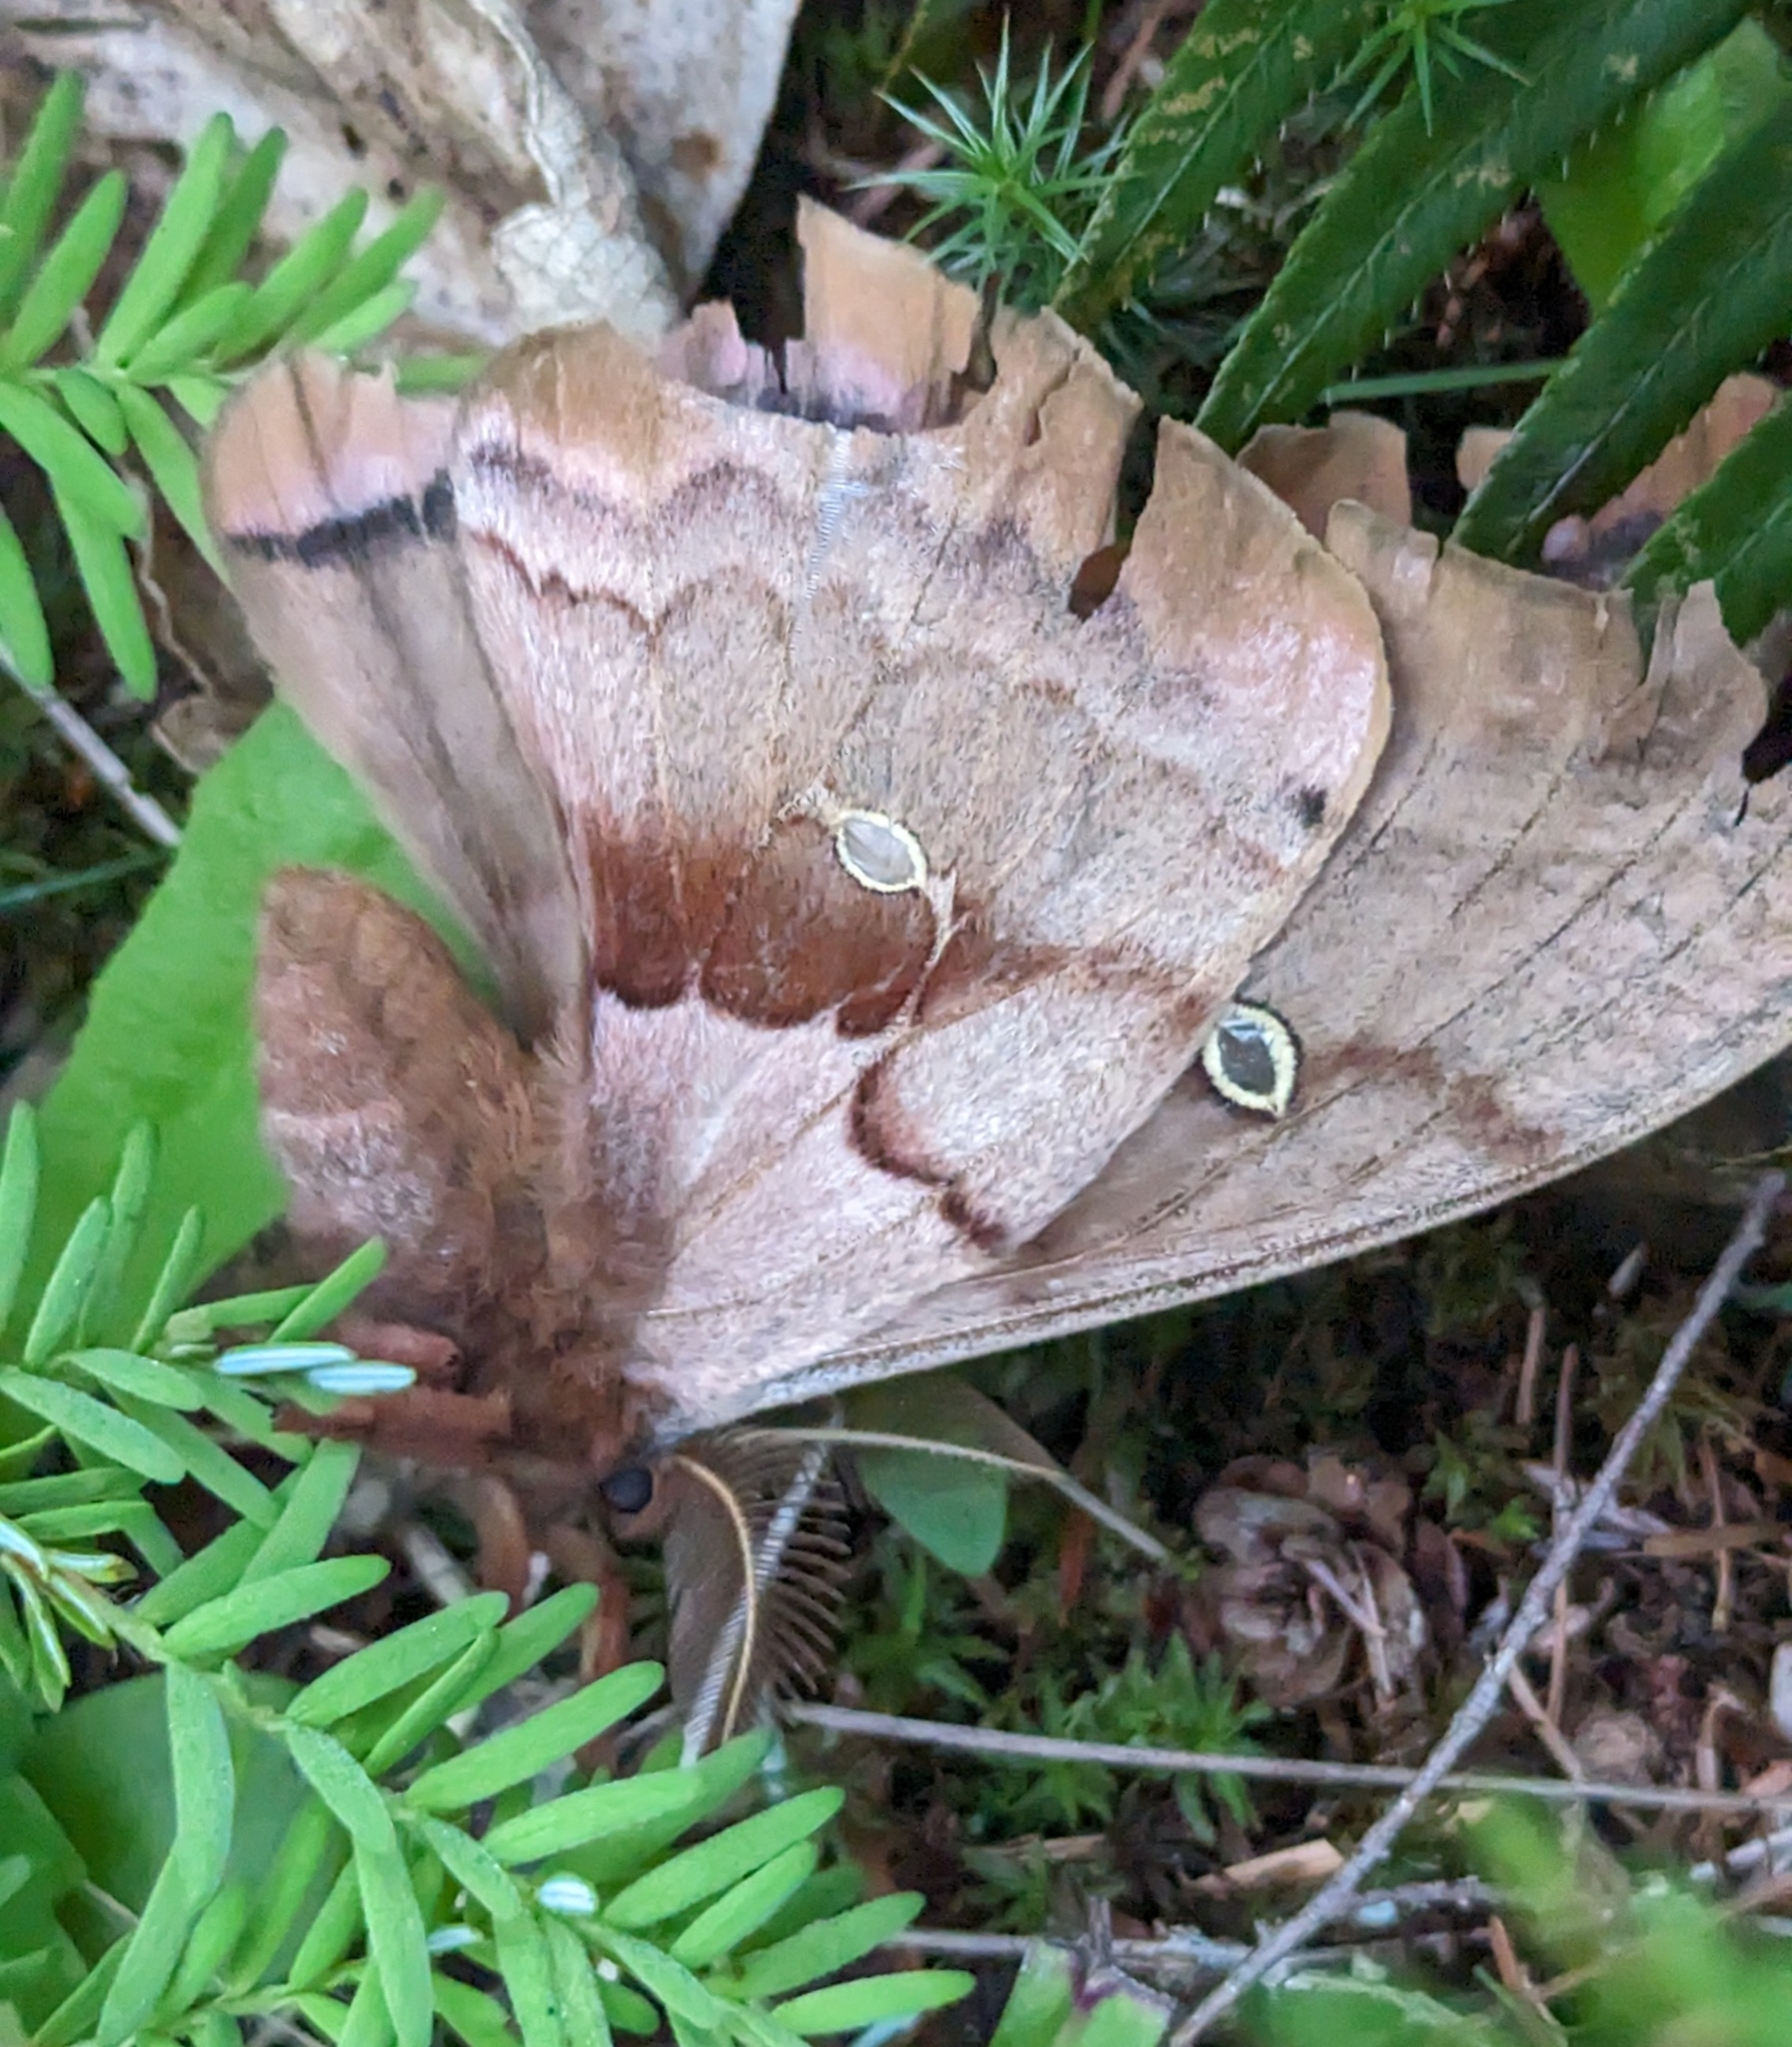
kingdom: Animalia
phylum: Arthropoda
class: Insecta
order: Lepidoptera
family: Saturniidae
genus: Antheraea
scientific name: Antheraea polyphemus
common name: Polyphemus moth
